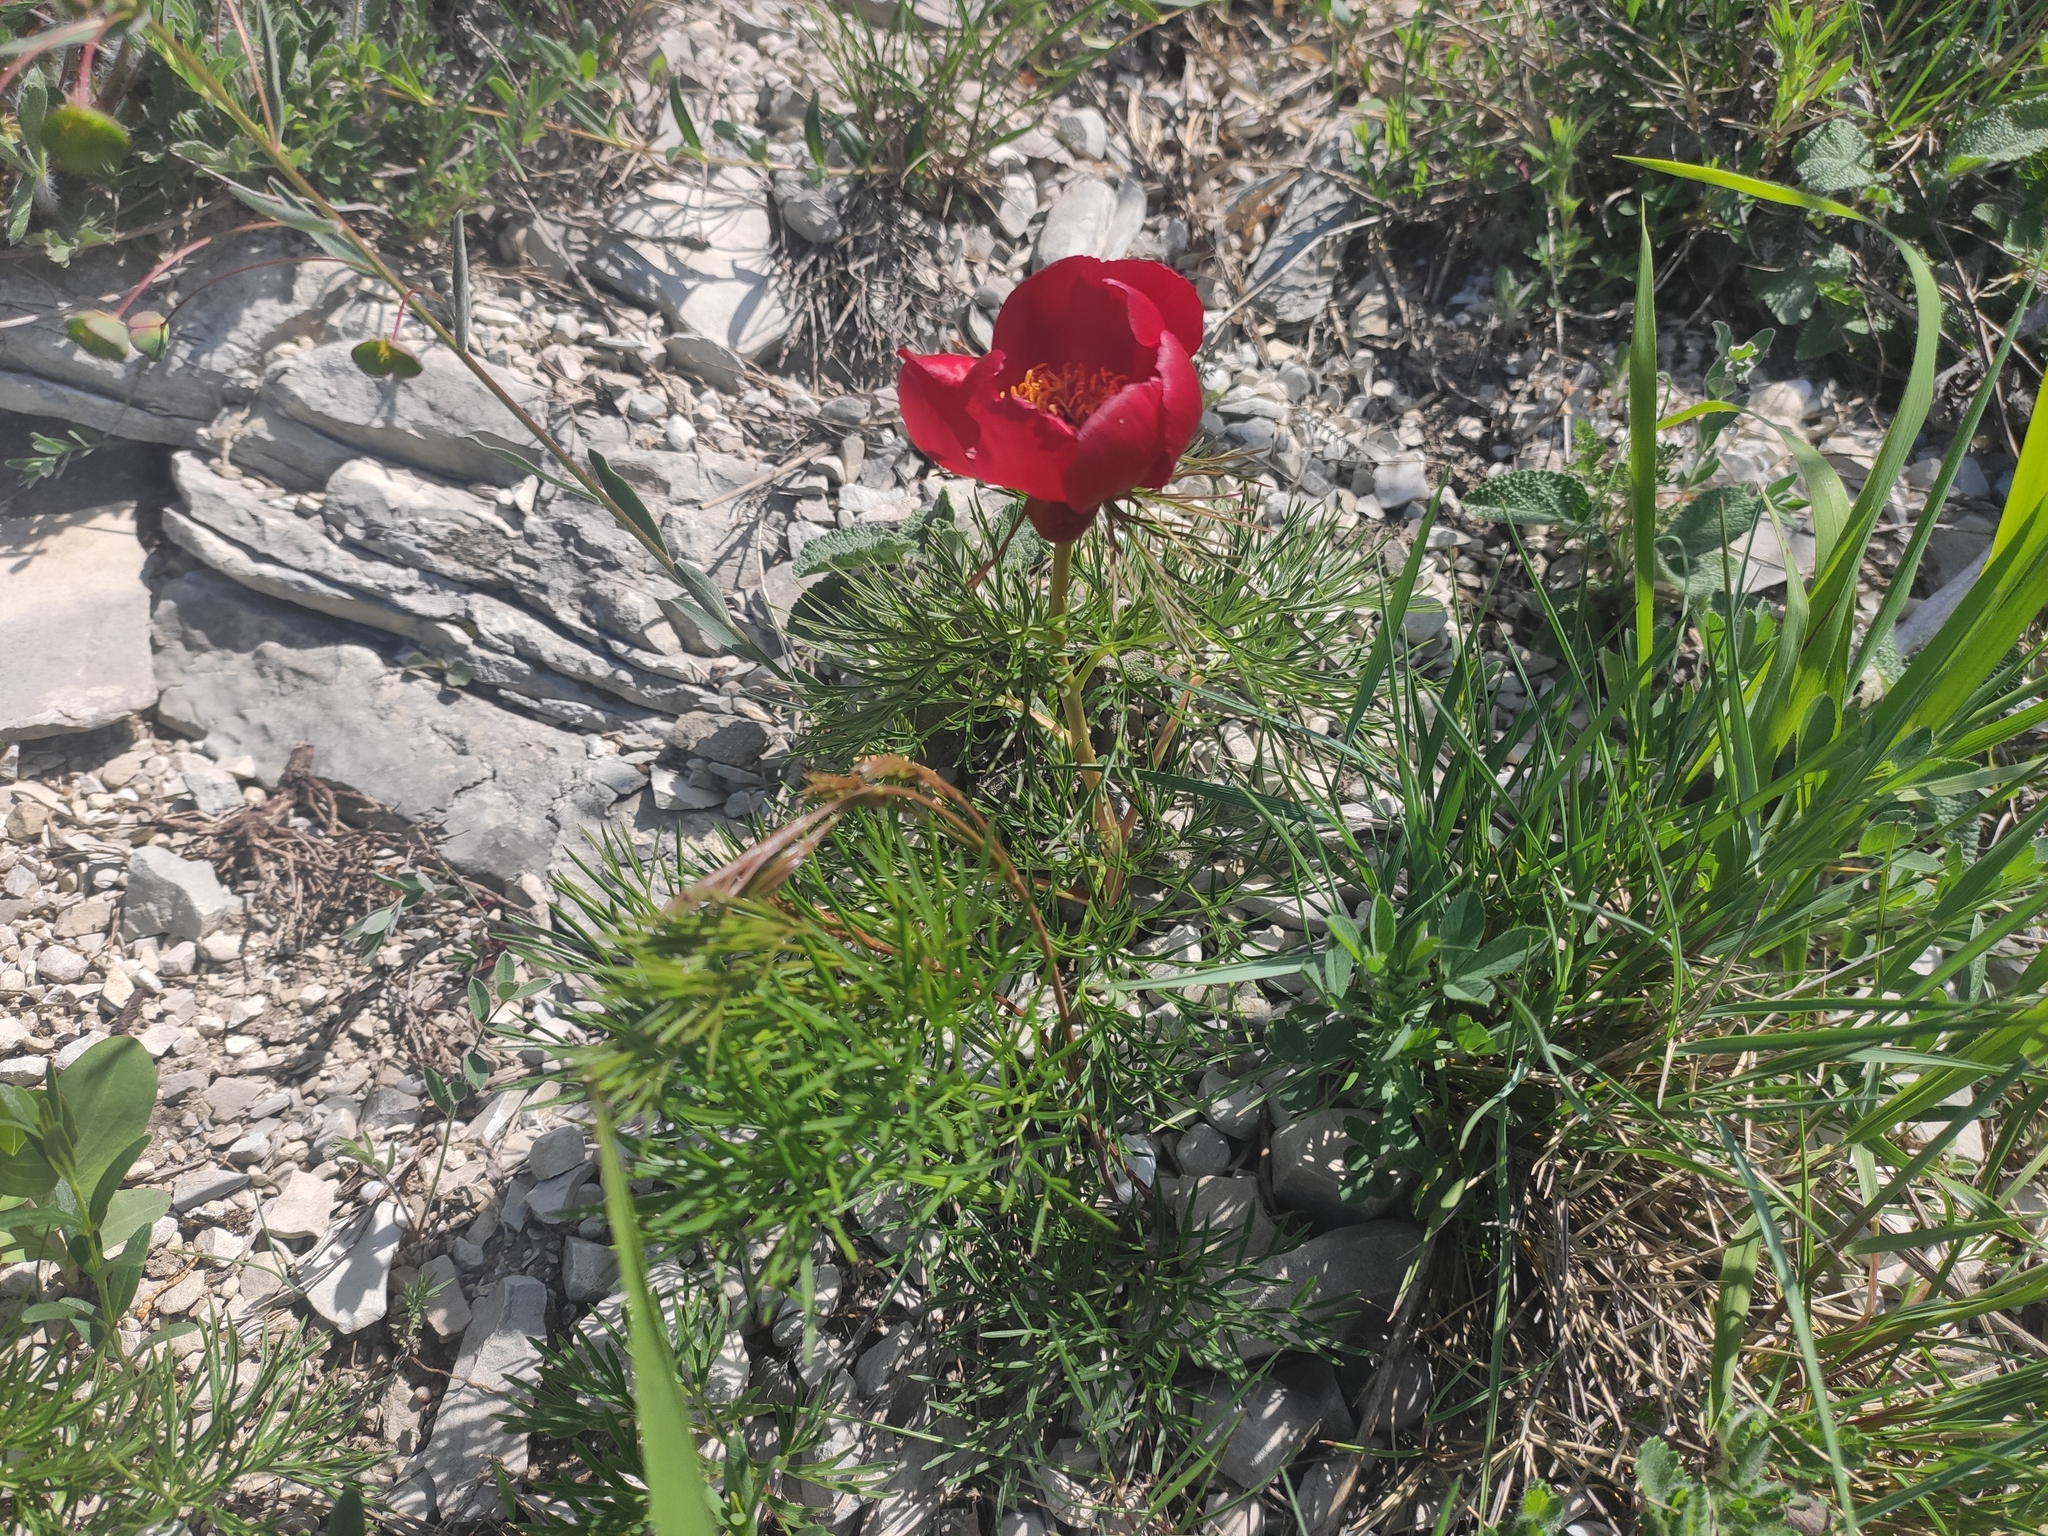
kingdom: Plantae
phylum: Tracheophyta
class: Magnoliopsida
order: Saxifragales
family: Paeoniaceae
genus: Paeonia
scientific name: Paeonia tenuifolia
